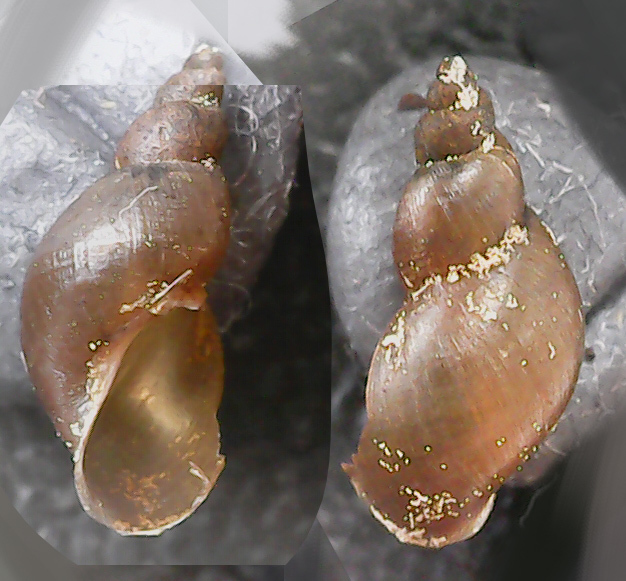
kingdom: Animalia
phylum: Mollusca
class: Gastropoda
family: Lymnaeidae
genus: Galba
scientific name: Galba truncatula
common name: Dwarf pond snail
